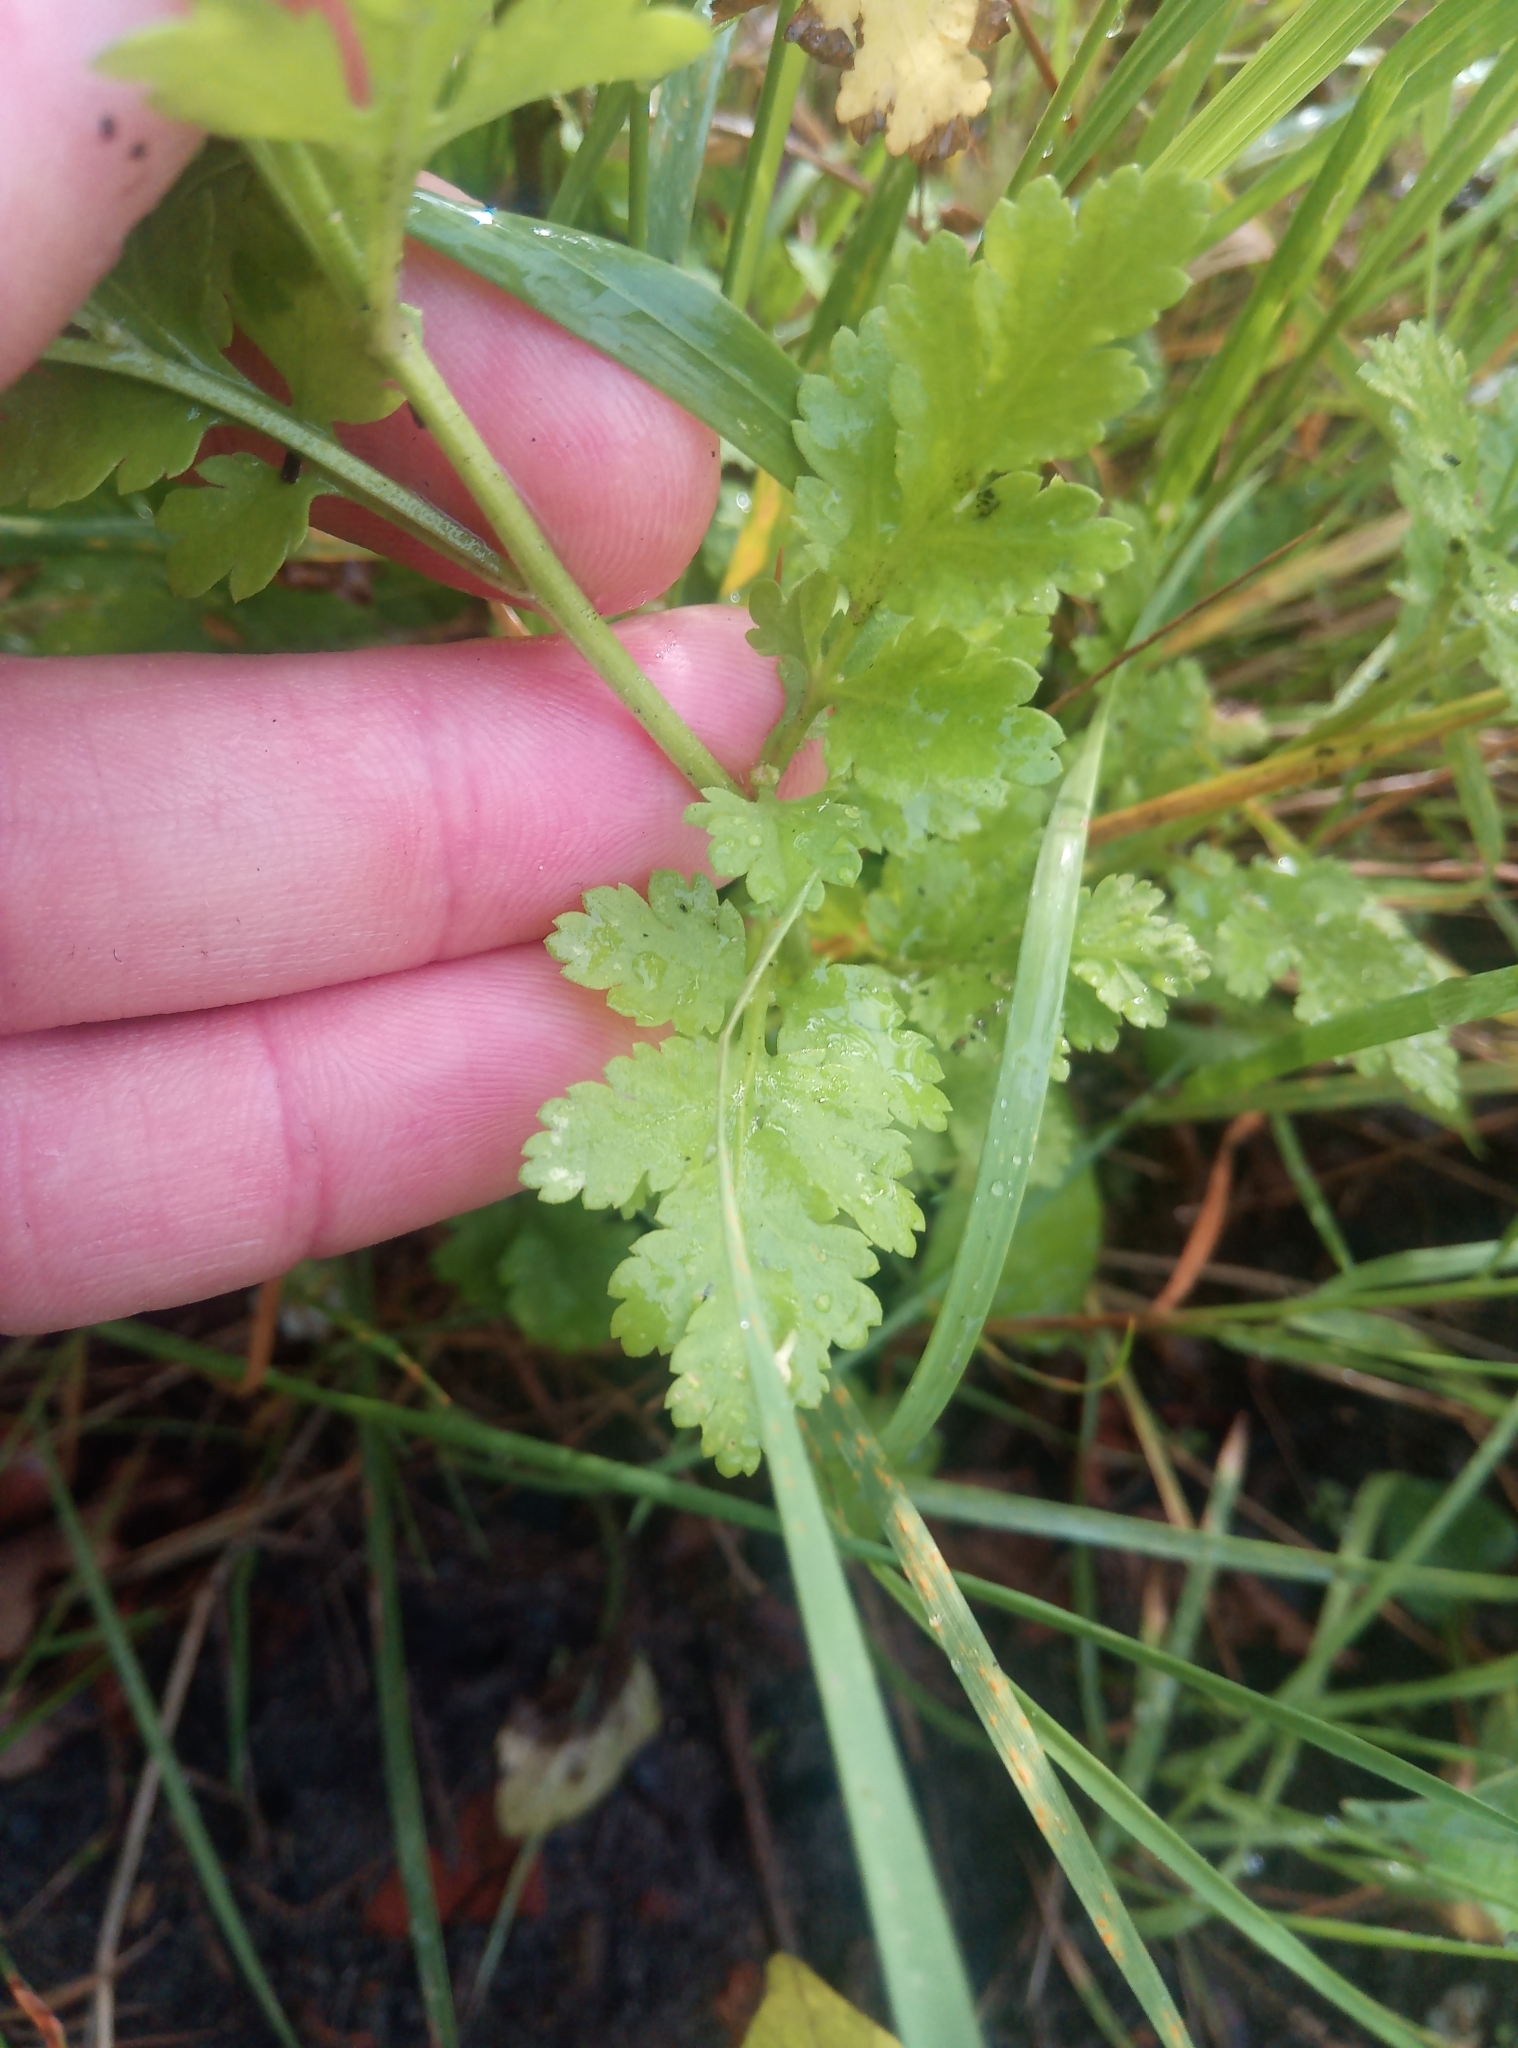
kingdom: Plantae
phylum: Tracheophyta
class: Magnoliopsida
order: Asterales
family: Asteraceae
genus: Tanacetum
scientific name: Tanacetum parthenium
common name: Feverfew
